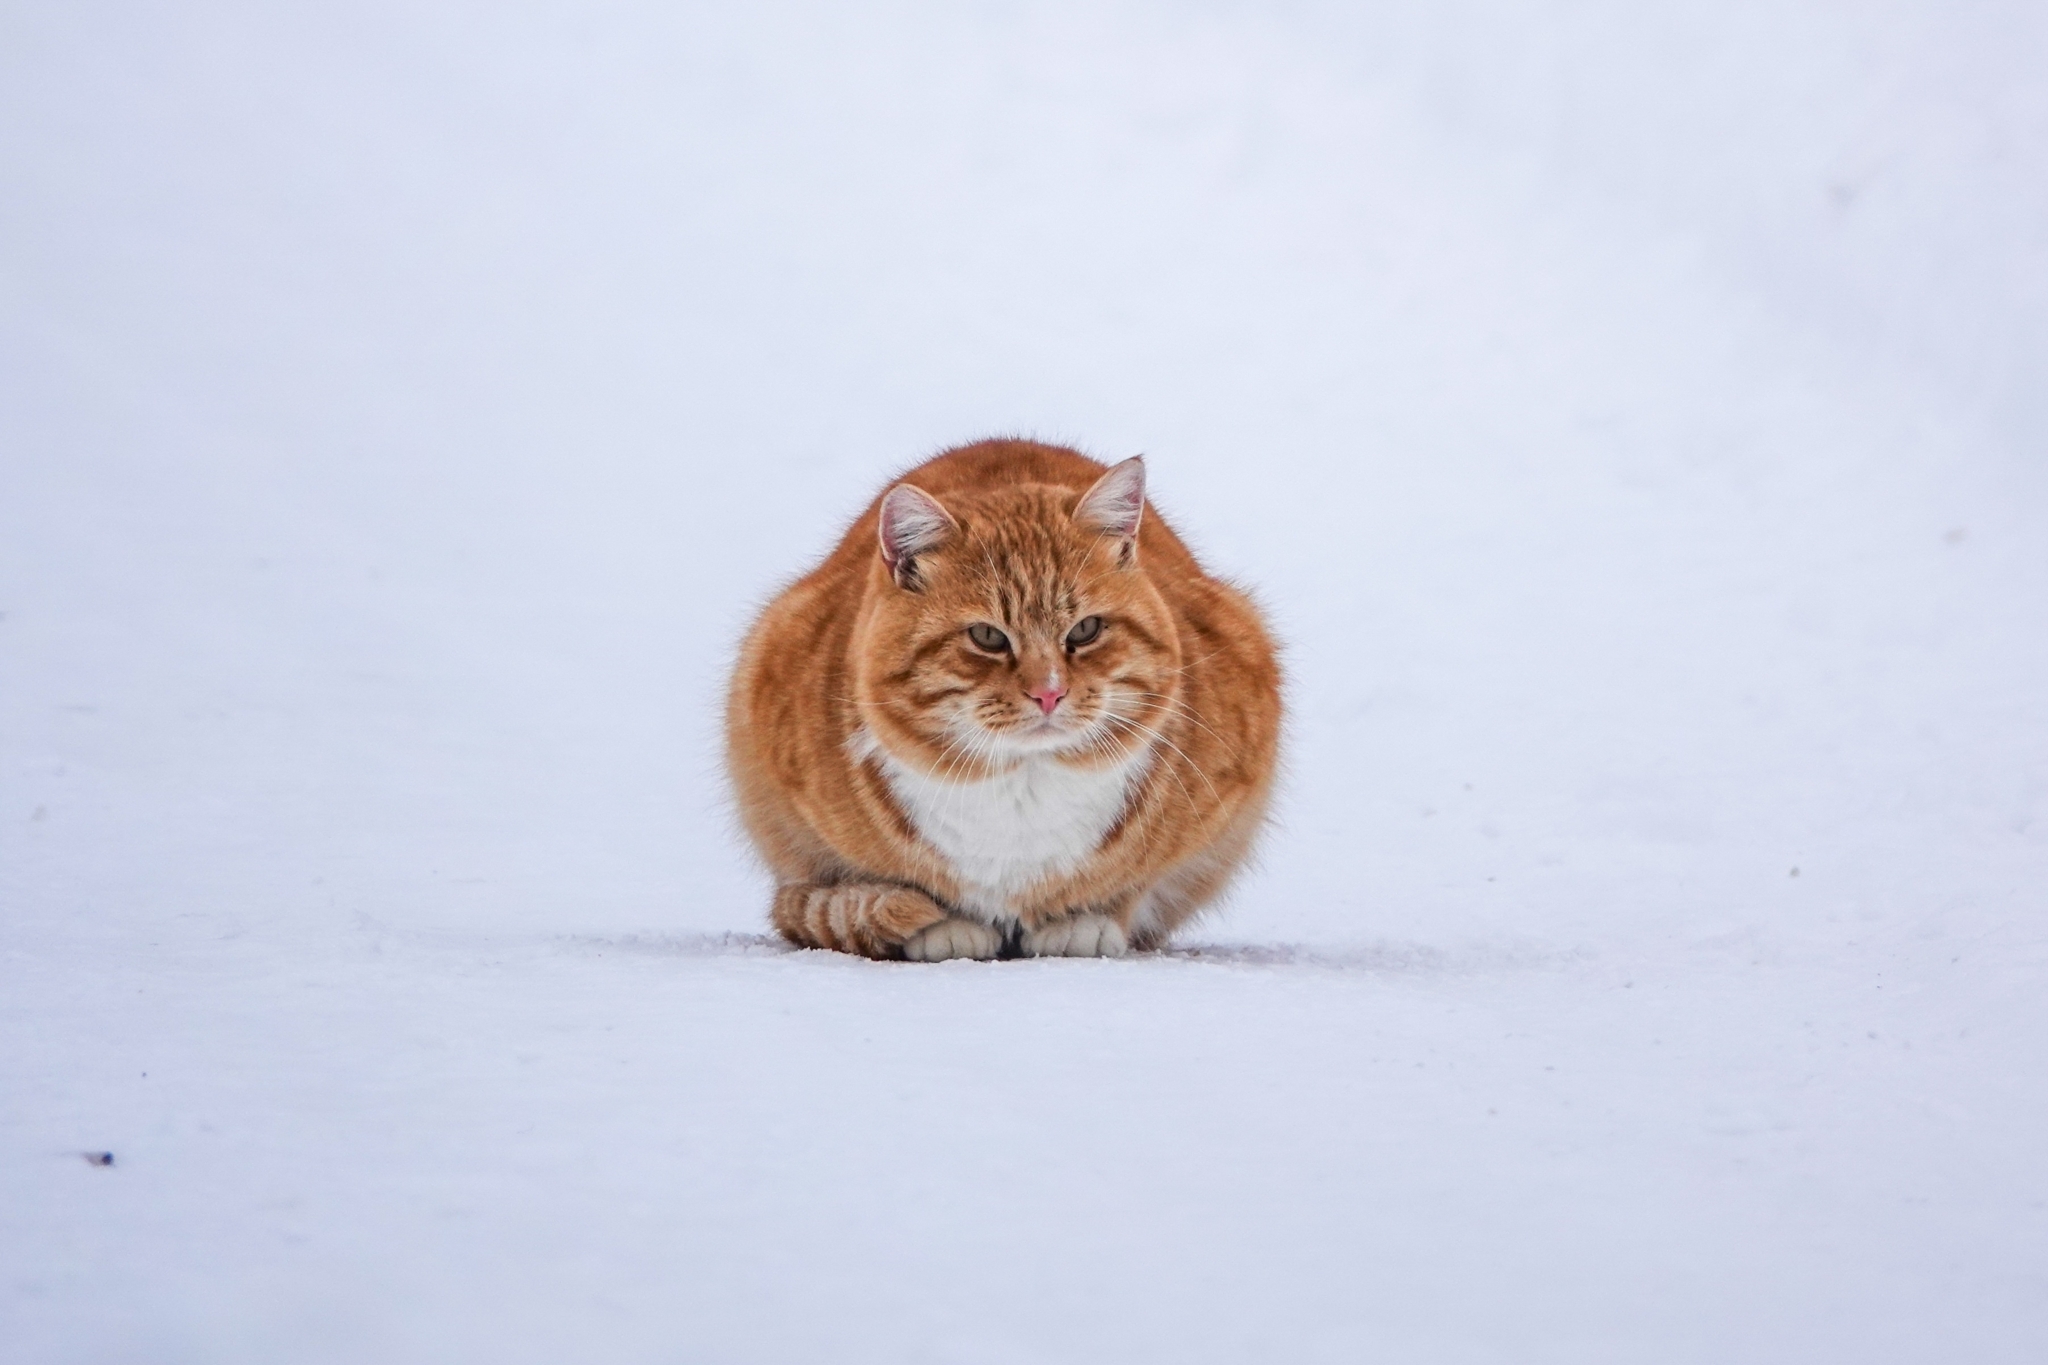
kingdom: Animalia
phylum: Chordata
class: Mammalia
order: Carnivora
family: Felidae
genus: Felis
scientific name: Felis catus
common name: Domestic cat
